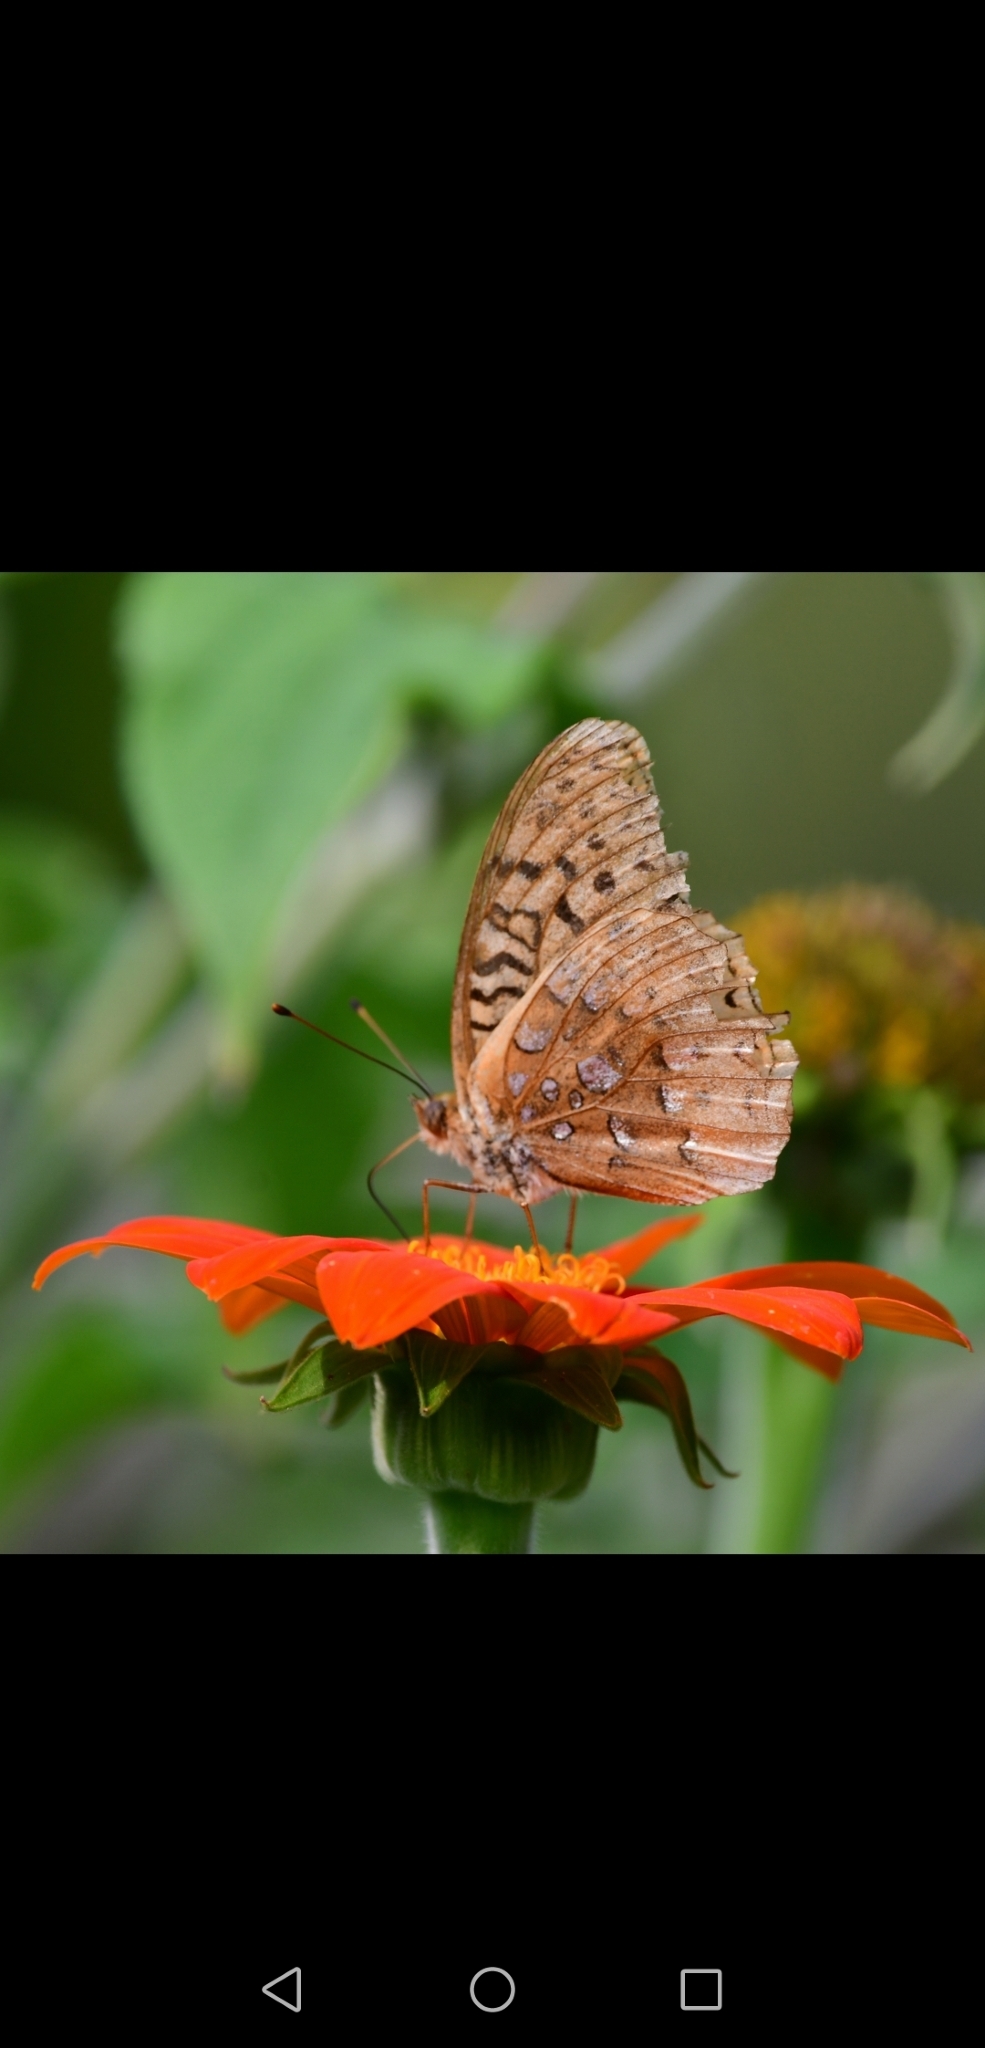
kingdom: Animalia
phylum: Arthropoda
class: Insecta
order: Lepidoptera
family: Nymphalidae
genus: Speyeria
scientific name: Speyeria cybele
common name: Great spangled fritillary
